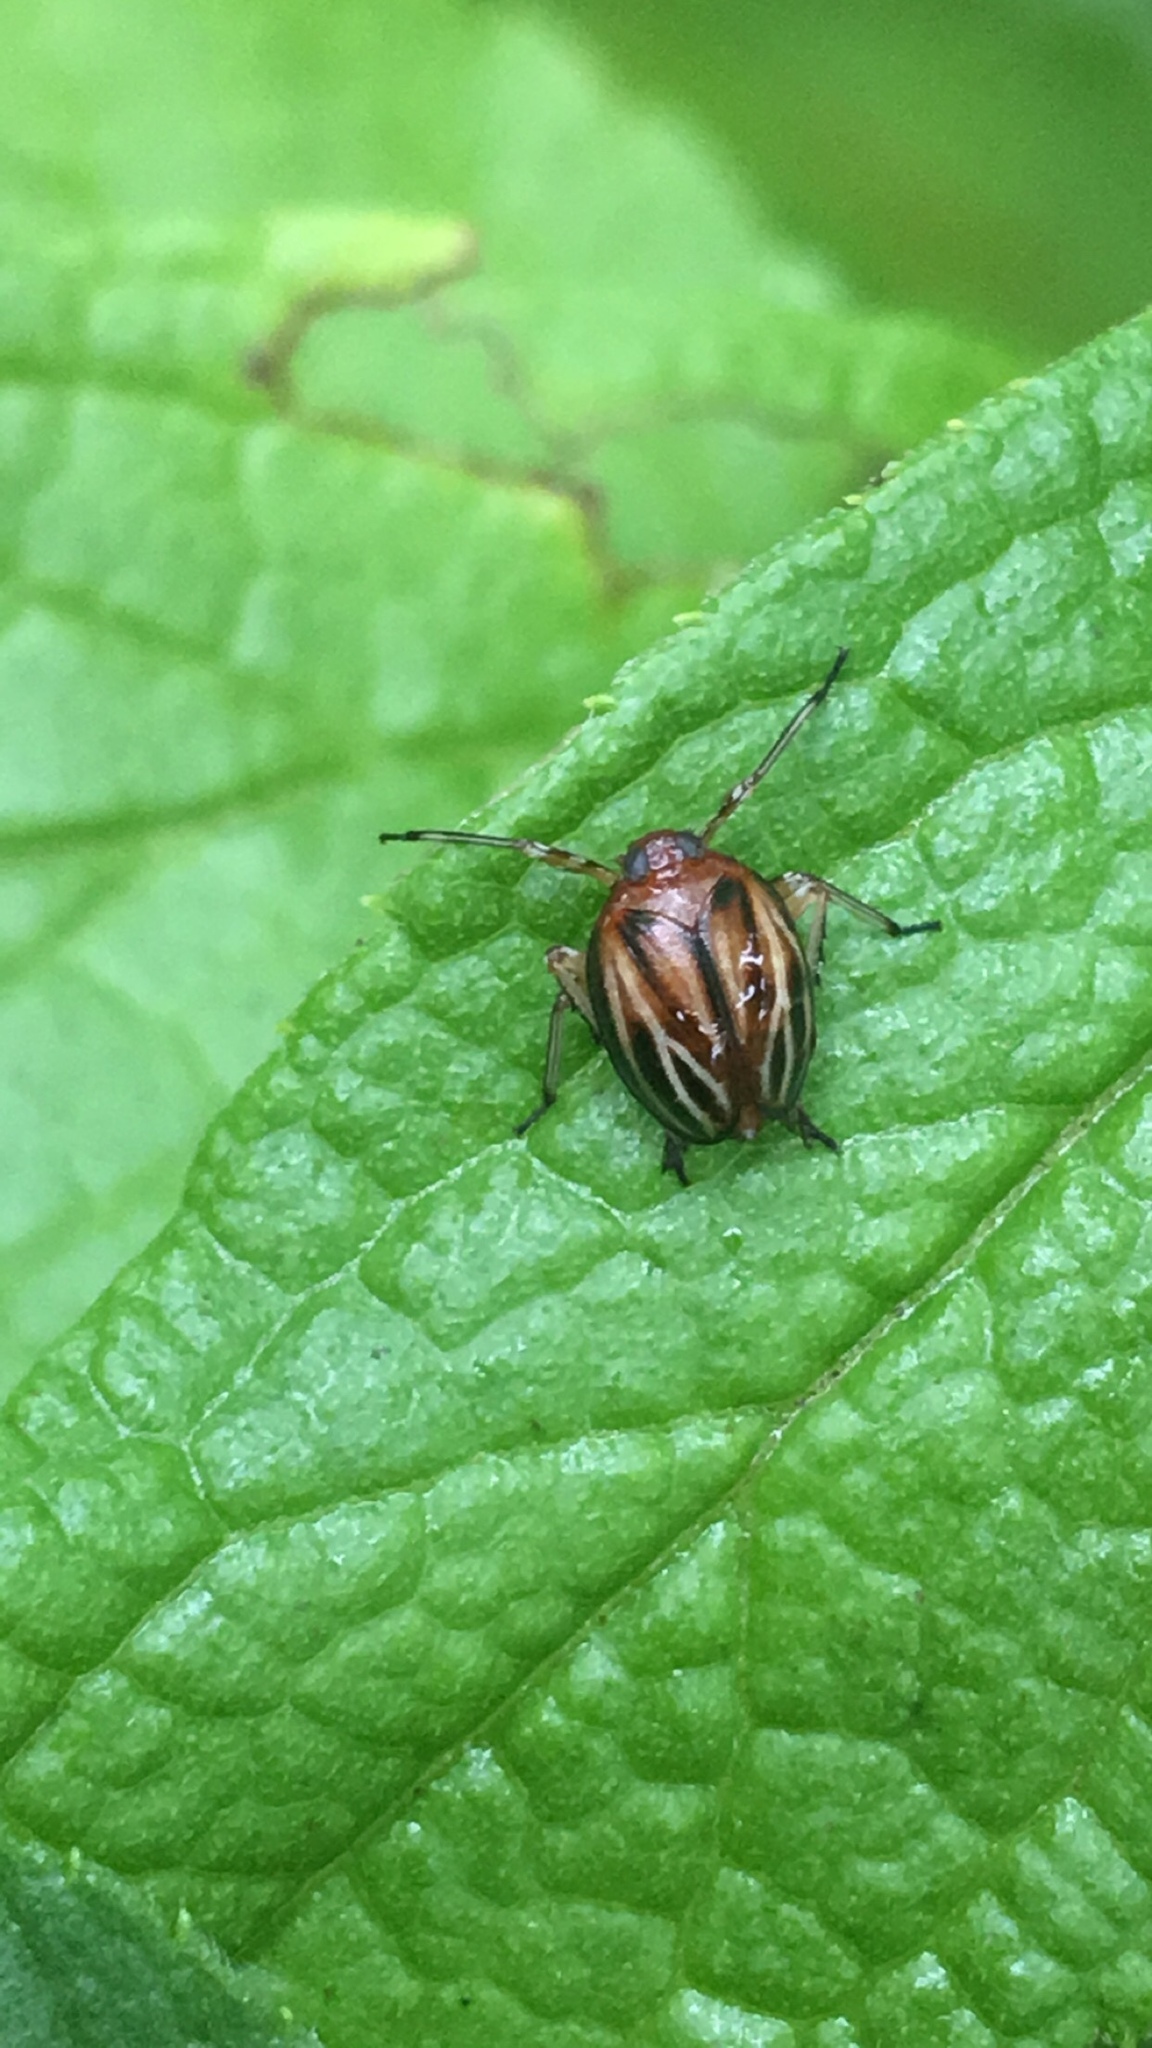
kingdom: Animalia
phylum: Arthropoda
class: Insecta
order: Hemiptera
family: Achilidae
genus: Isodaemon
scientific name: Isodaemon orontes
